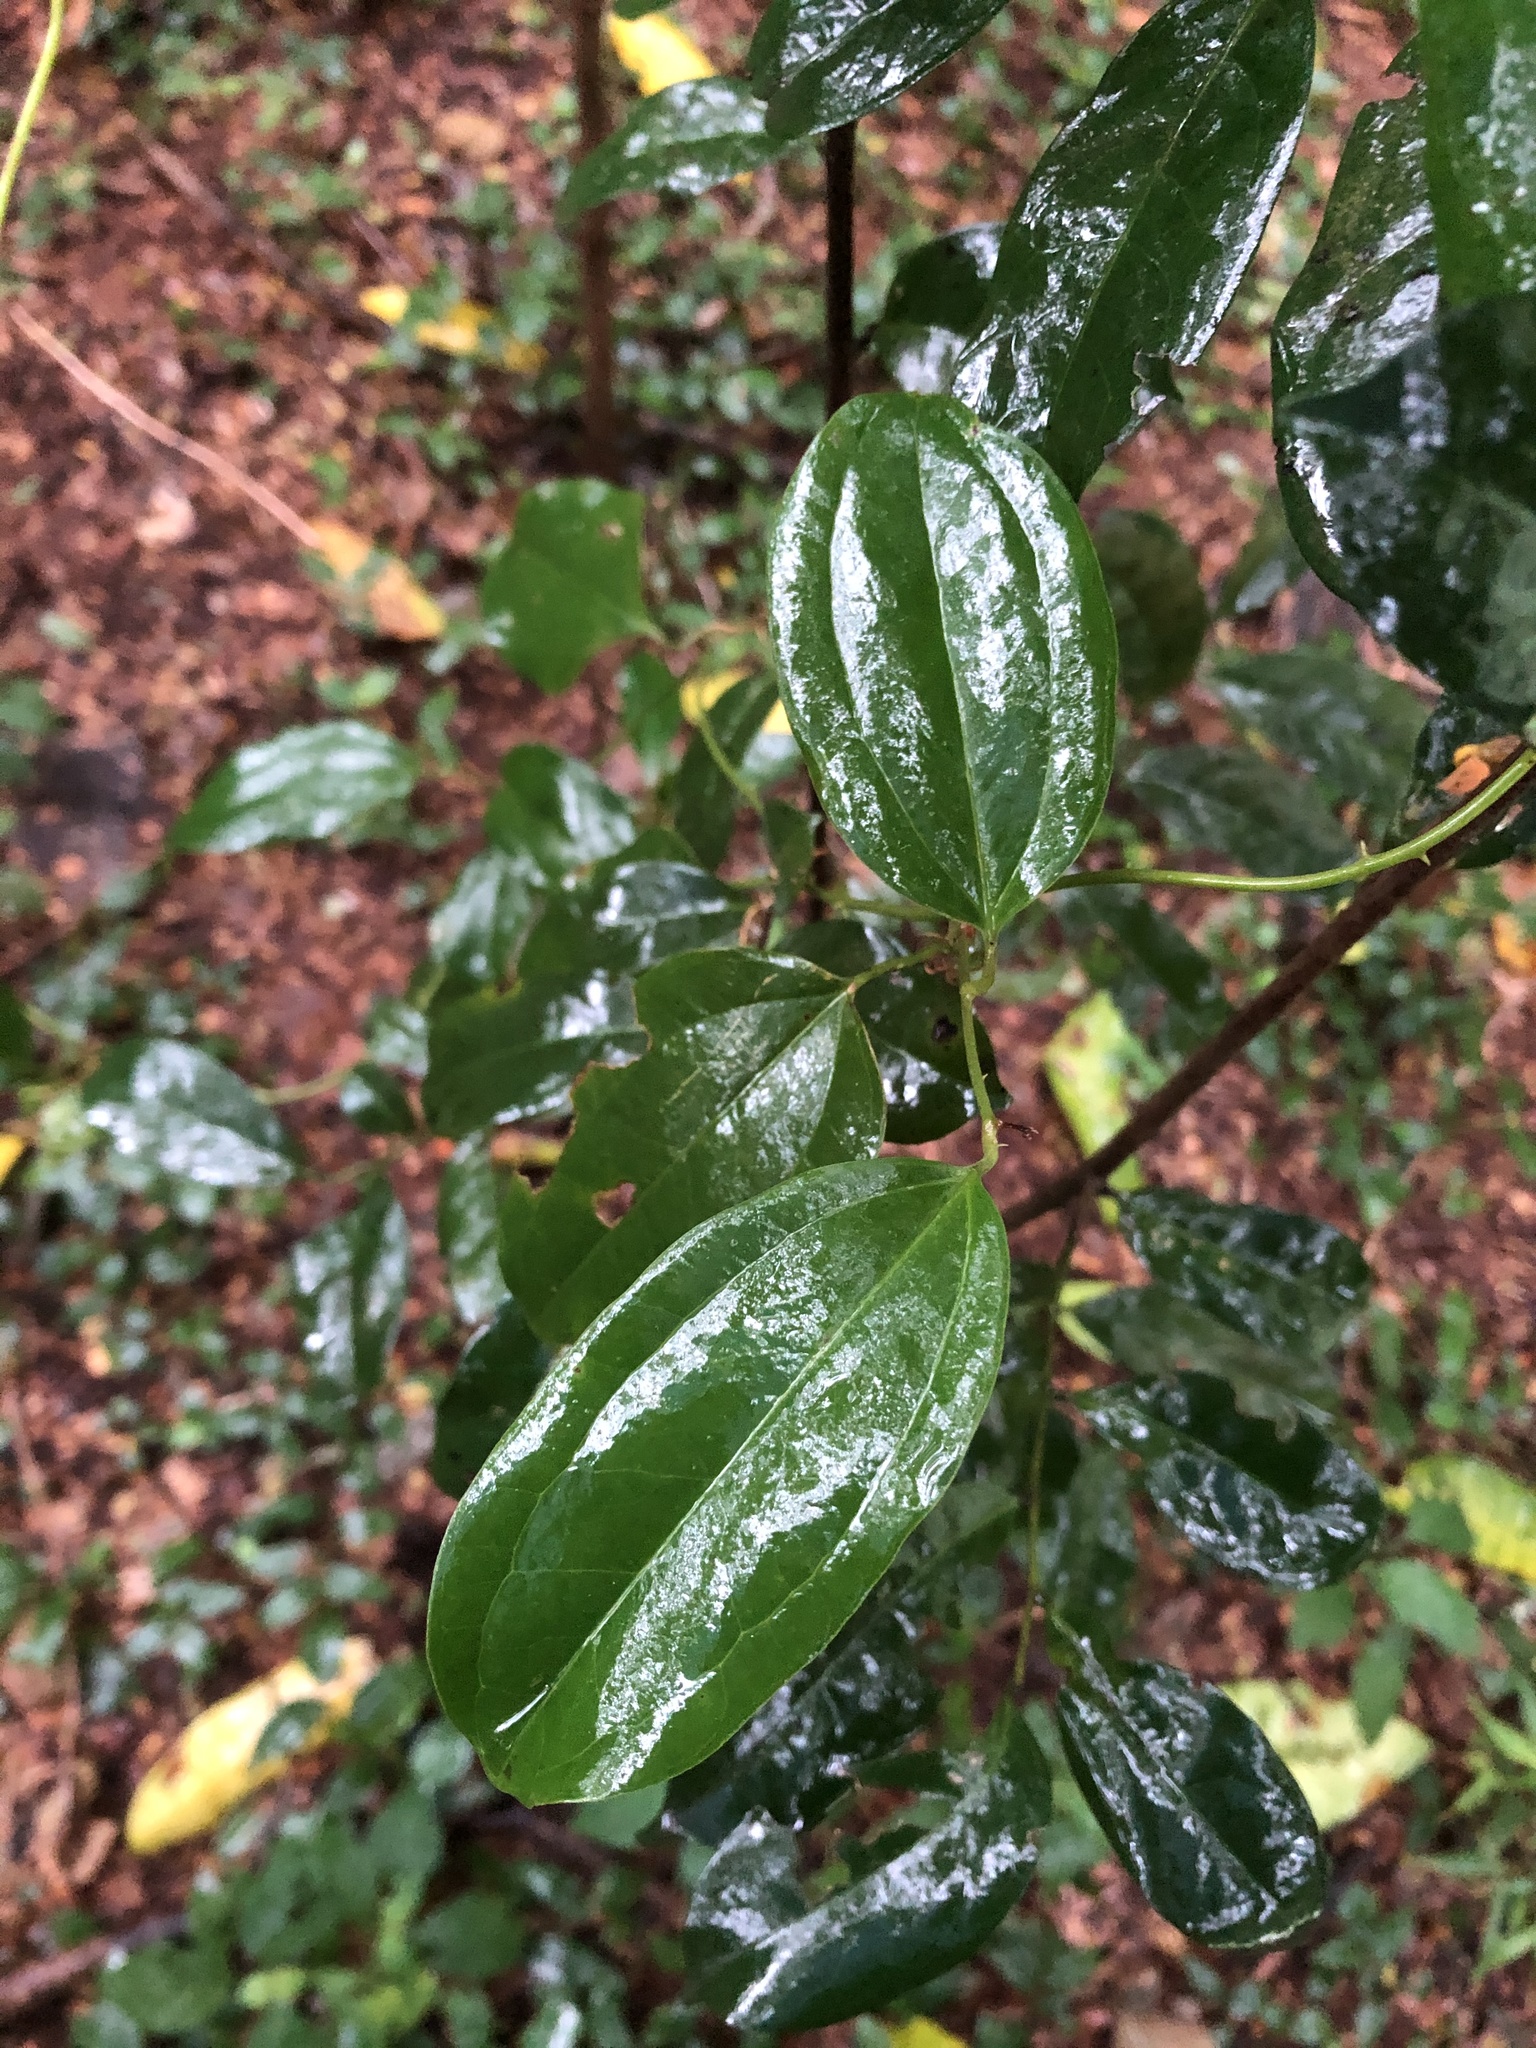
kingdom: Plantae
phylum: Tracheophyta
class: Liliopsida
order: Liliales
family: Smilacaceae
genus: Smilax
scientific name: Smilax anceps
